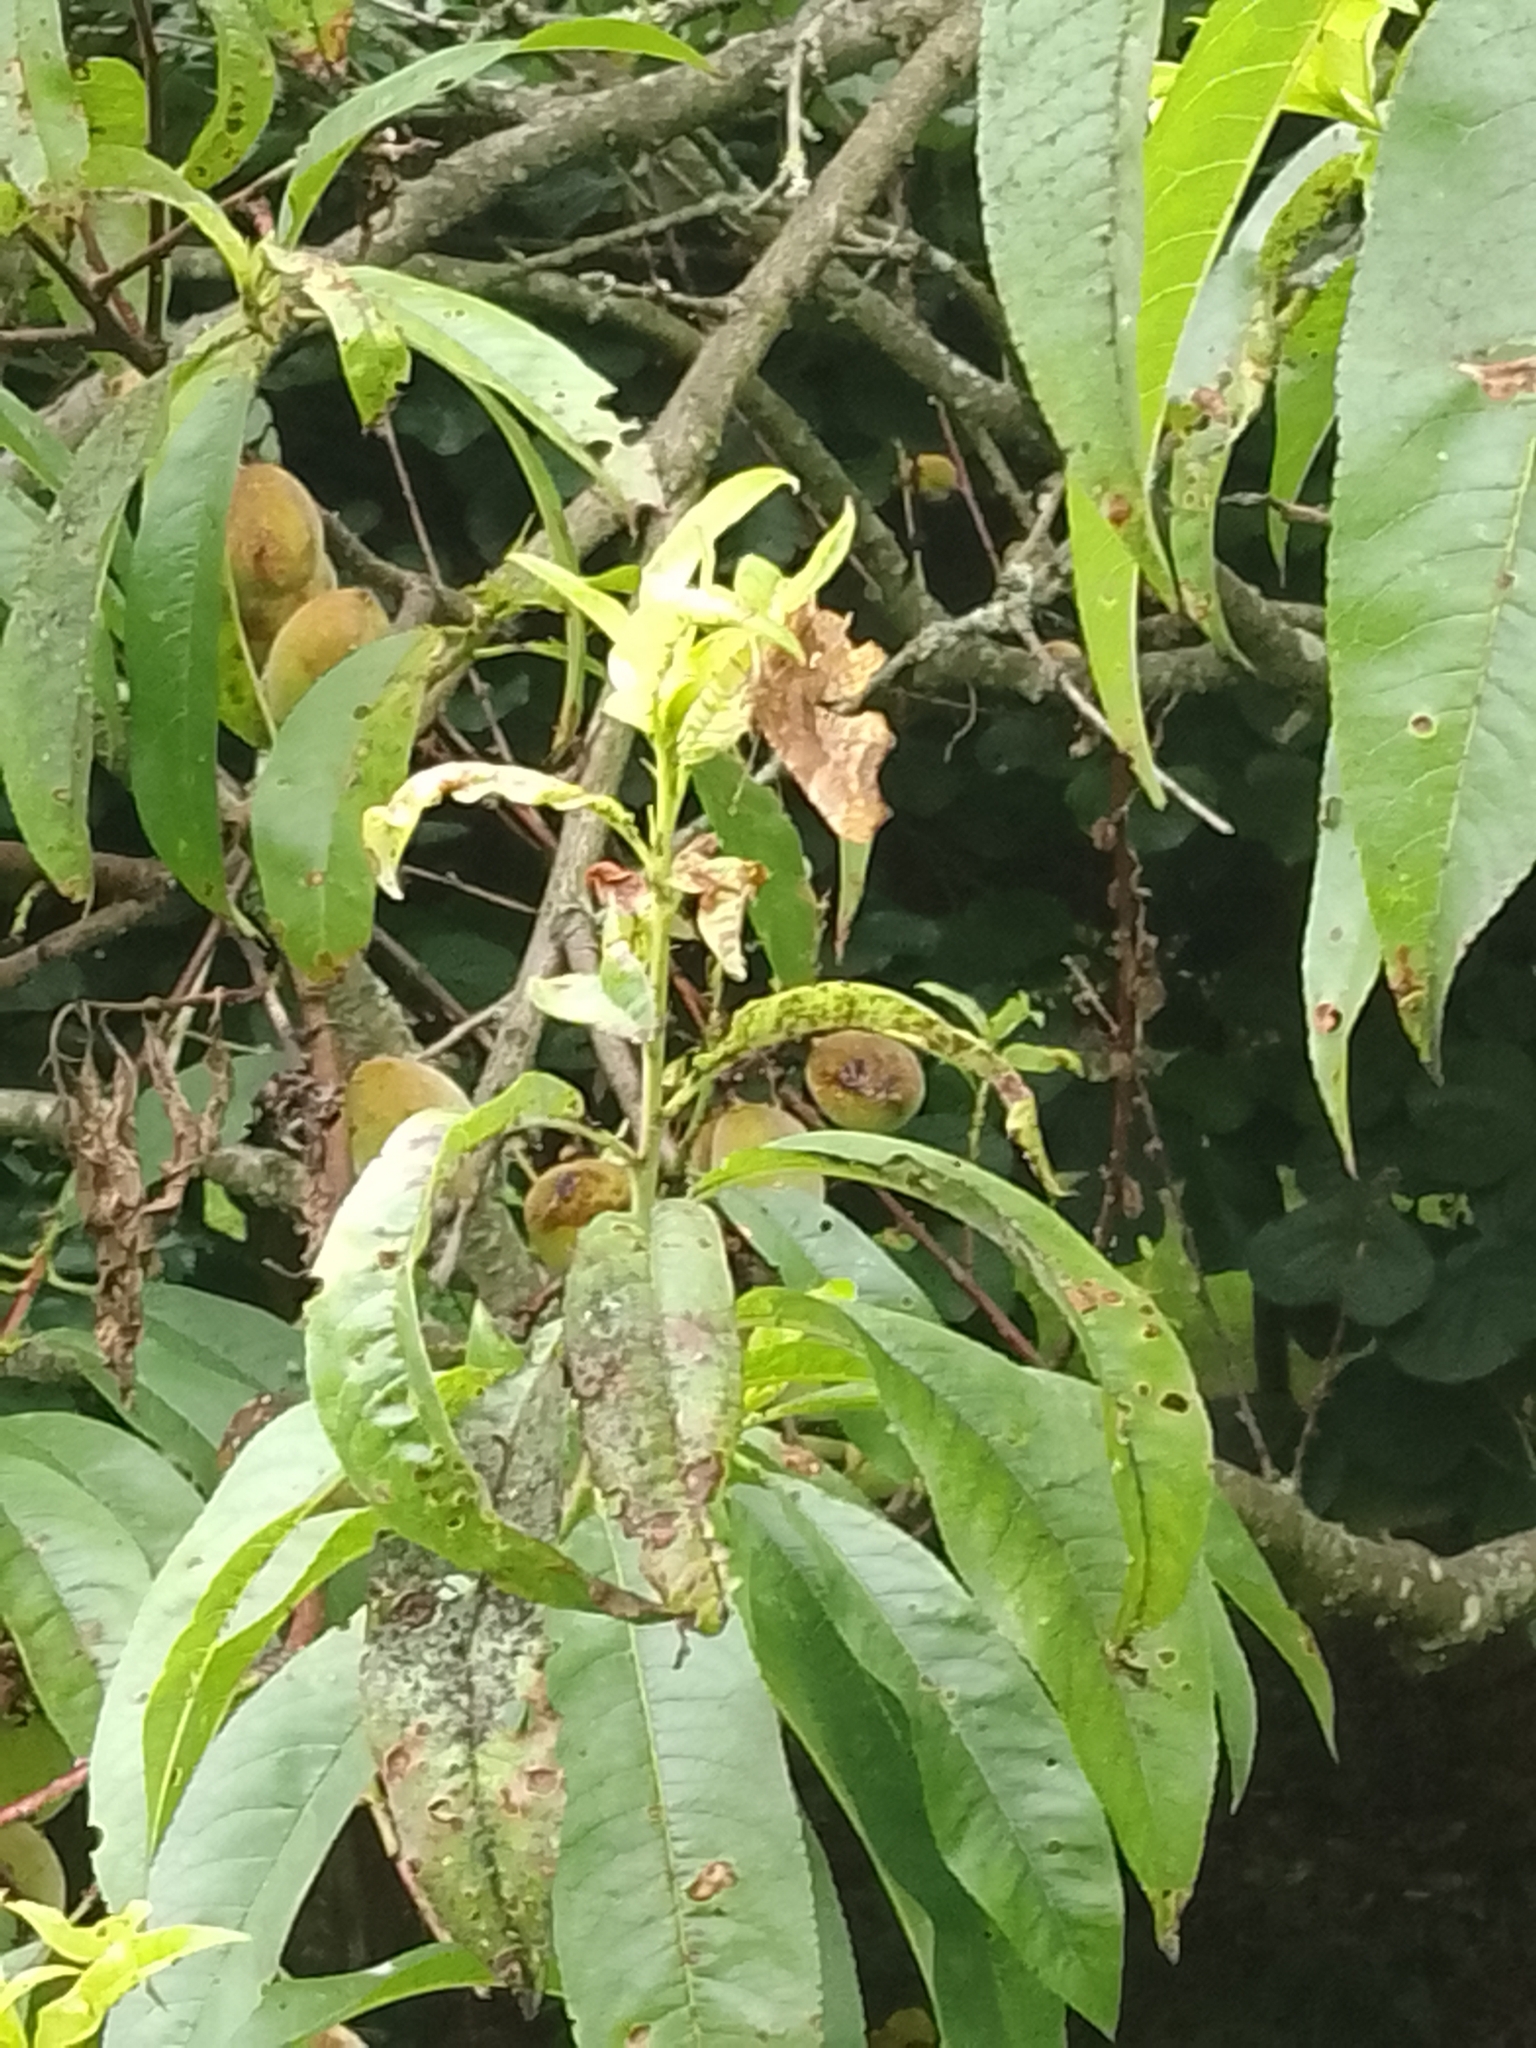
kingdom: Animalia
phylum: Arthropoda
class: Insecta
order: Lepidoptera
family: Nymphalidae
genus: Polygonia
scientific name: Polygonia c-album
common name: Comma
